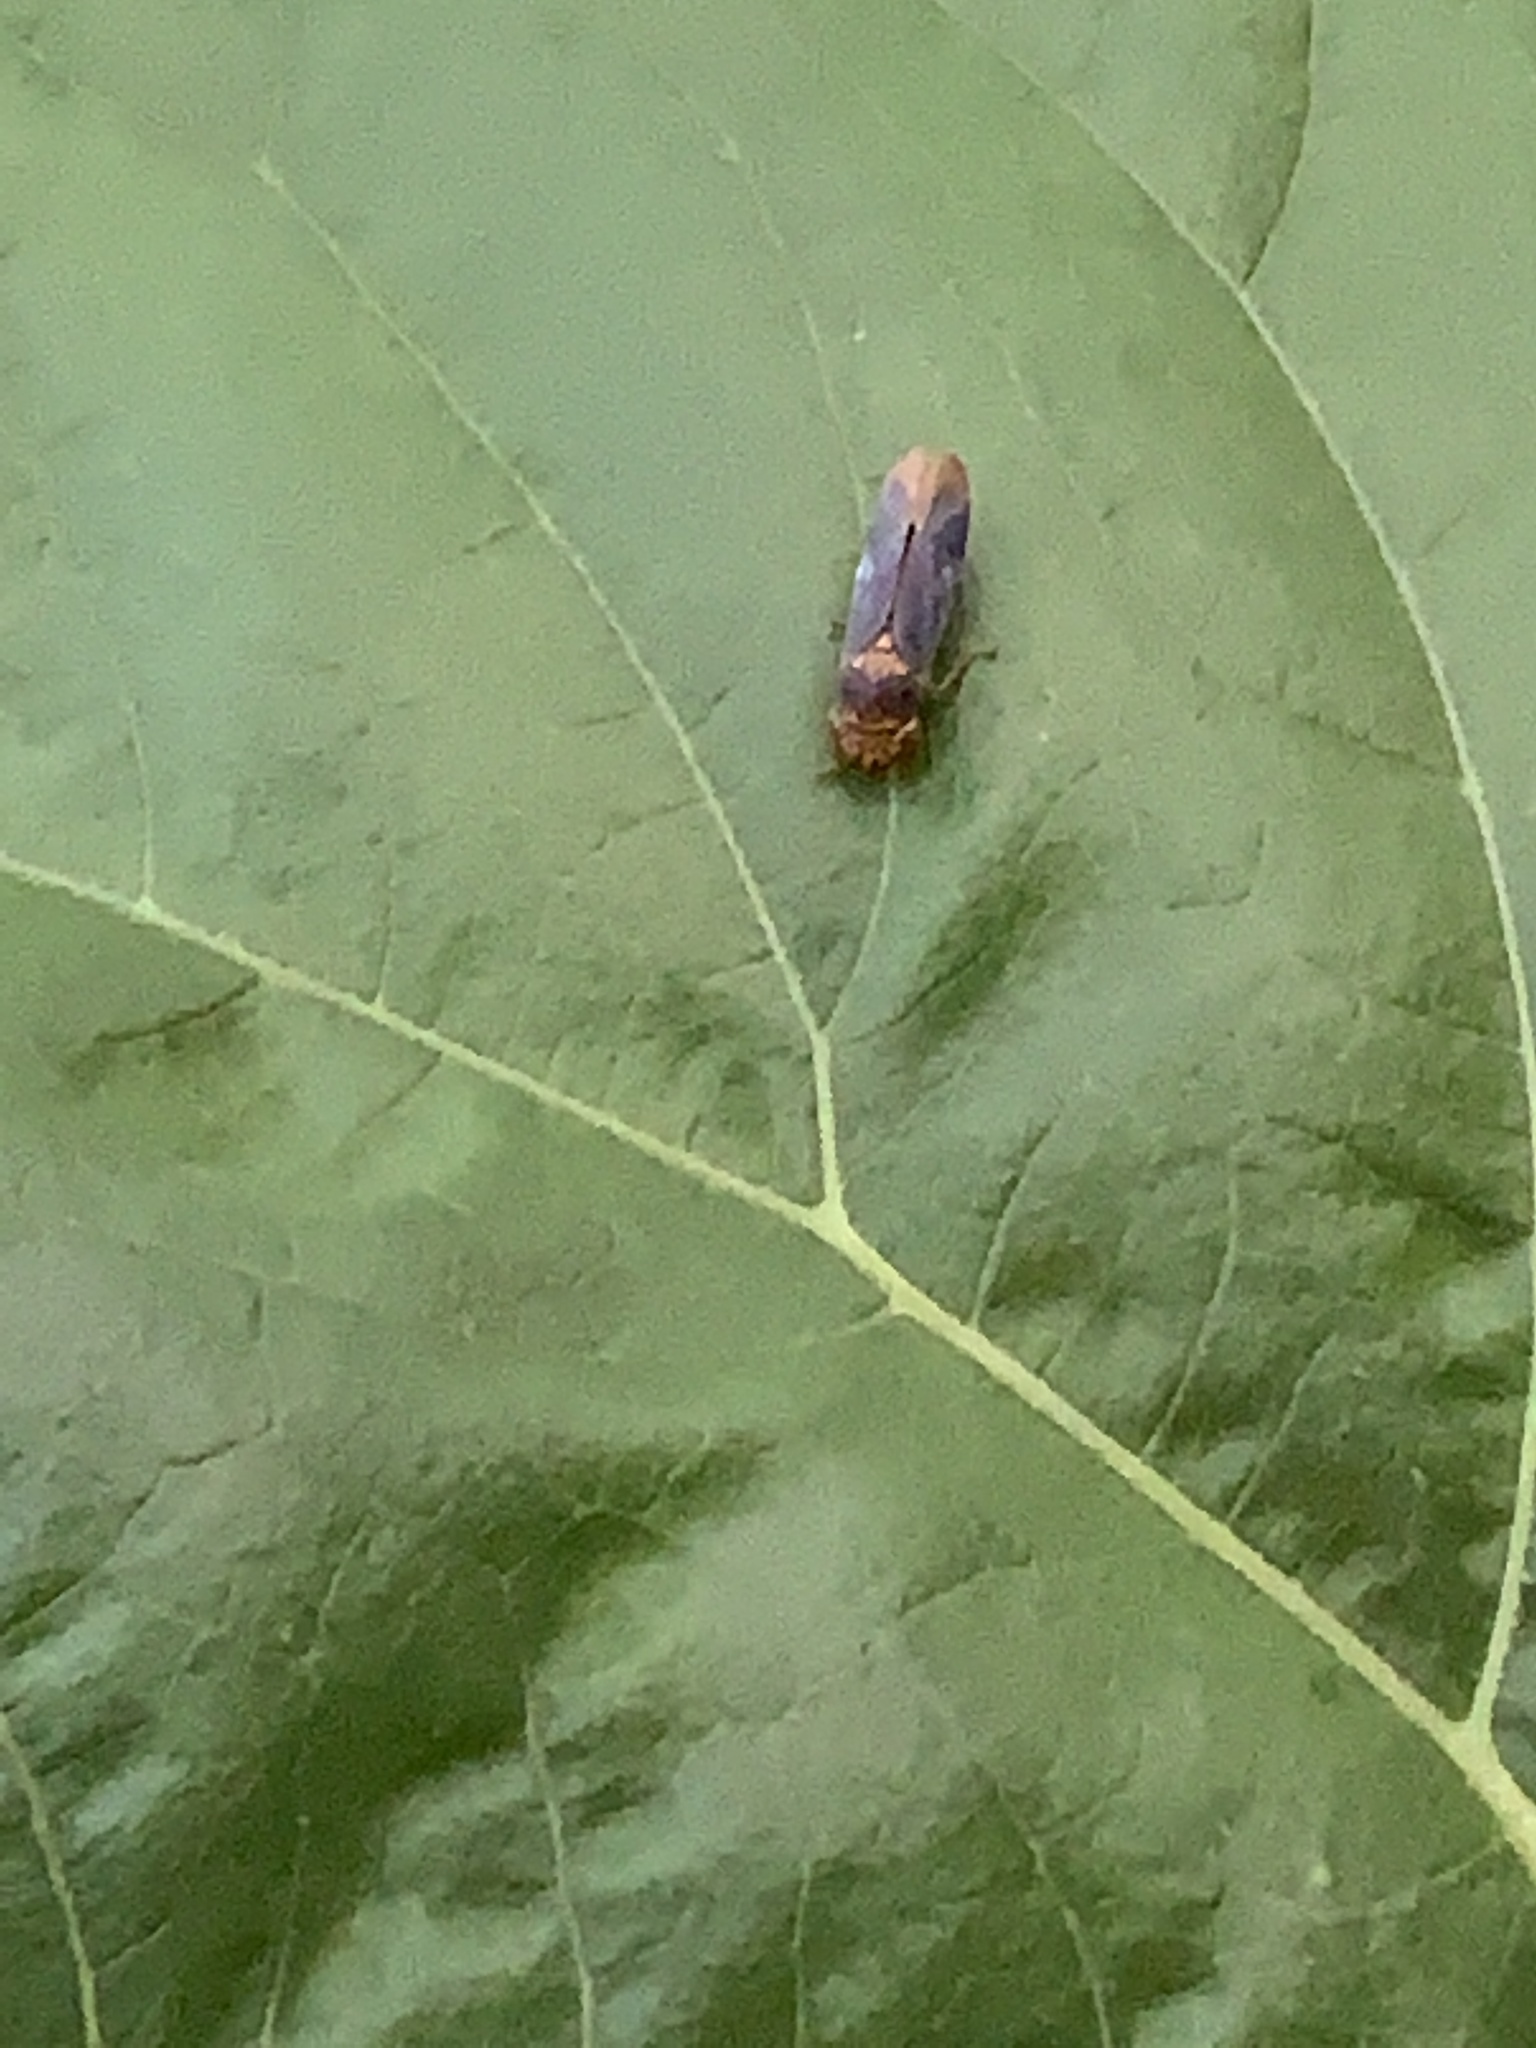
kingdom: Animalia
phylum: Arthropoda
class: Insecta
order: Hemiptera
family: Cicadellidae
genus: Oncometopia
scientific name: Oncometopia orbona
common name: Broad-headed sharpshooter
